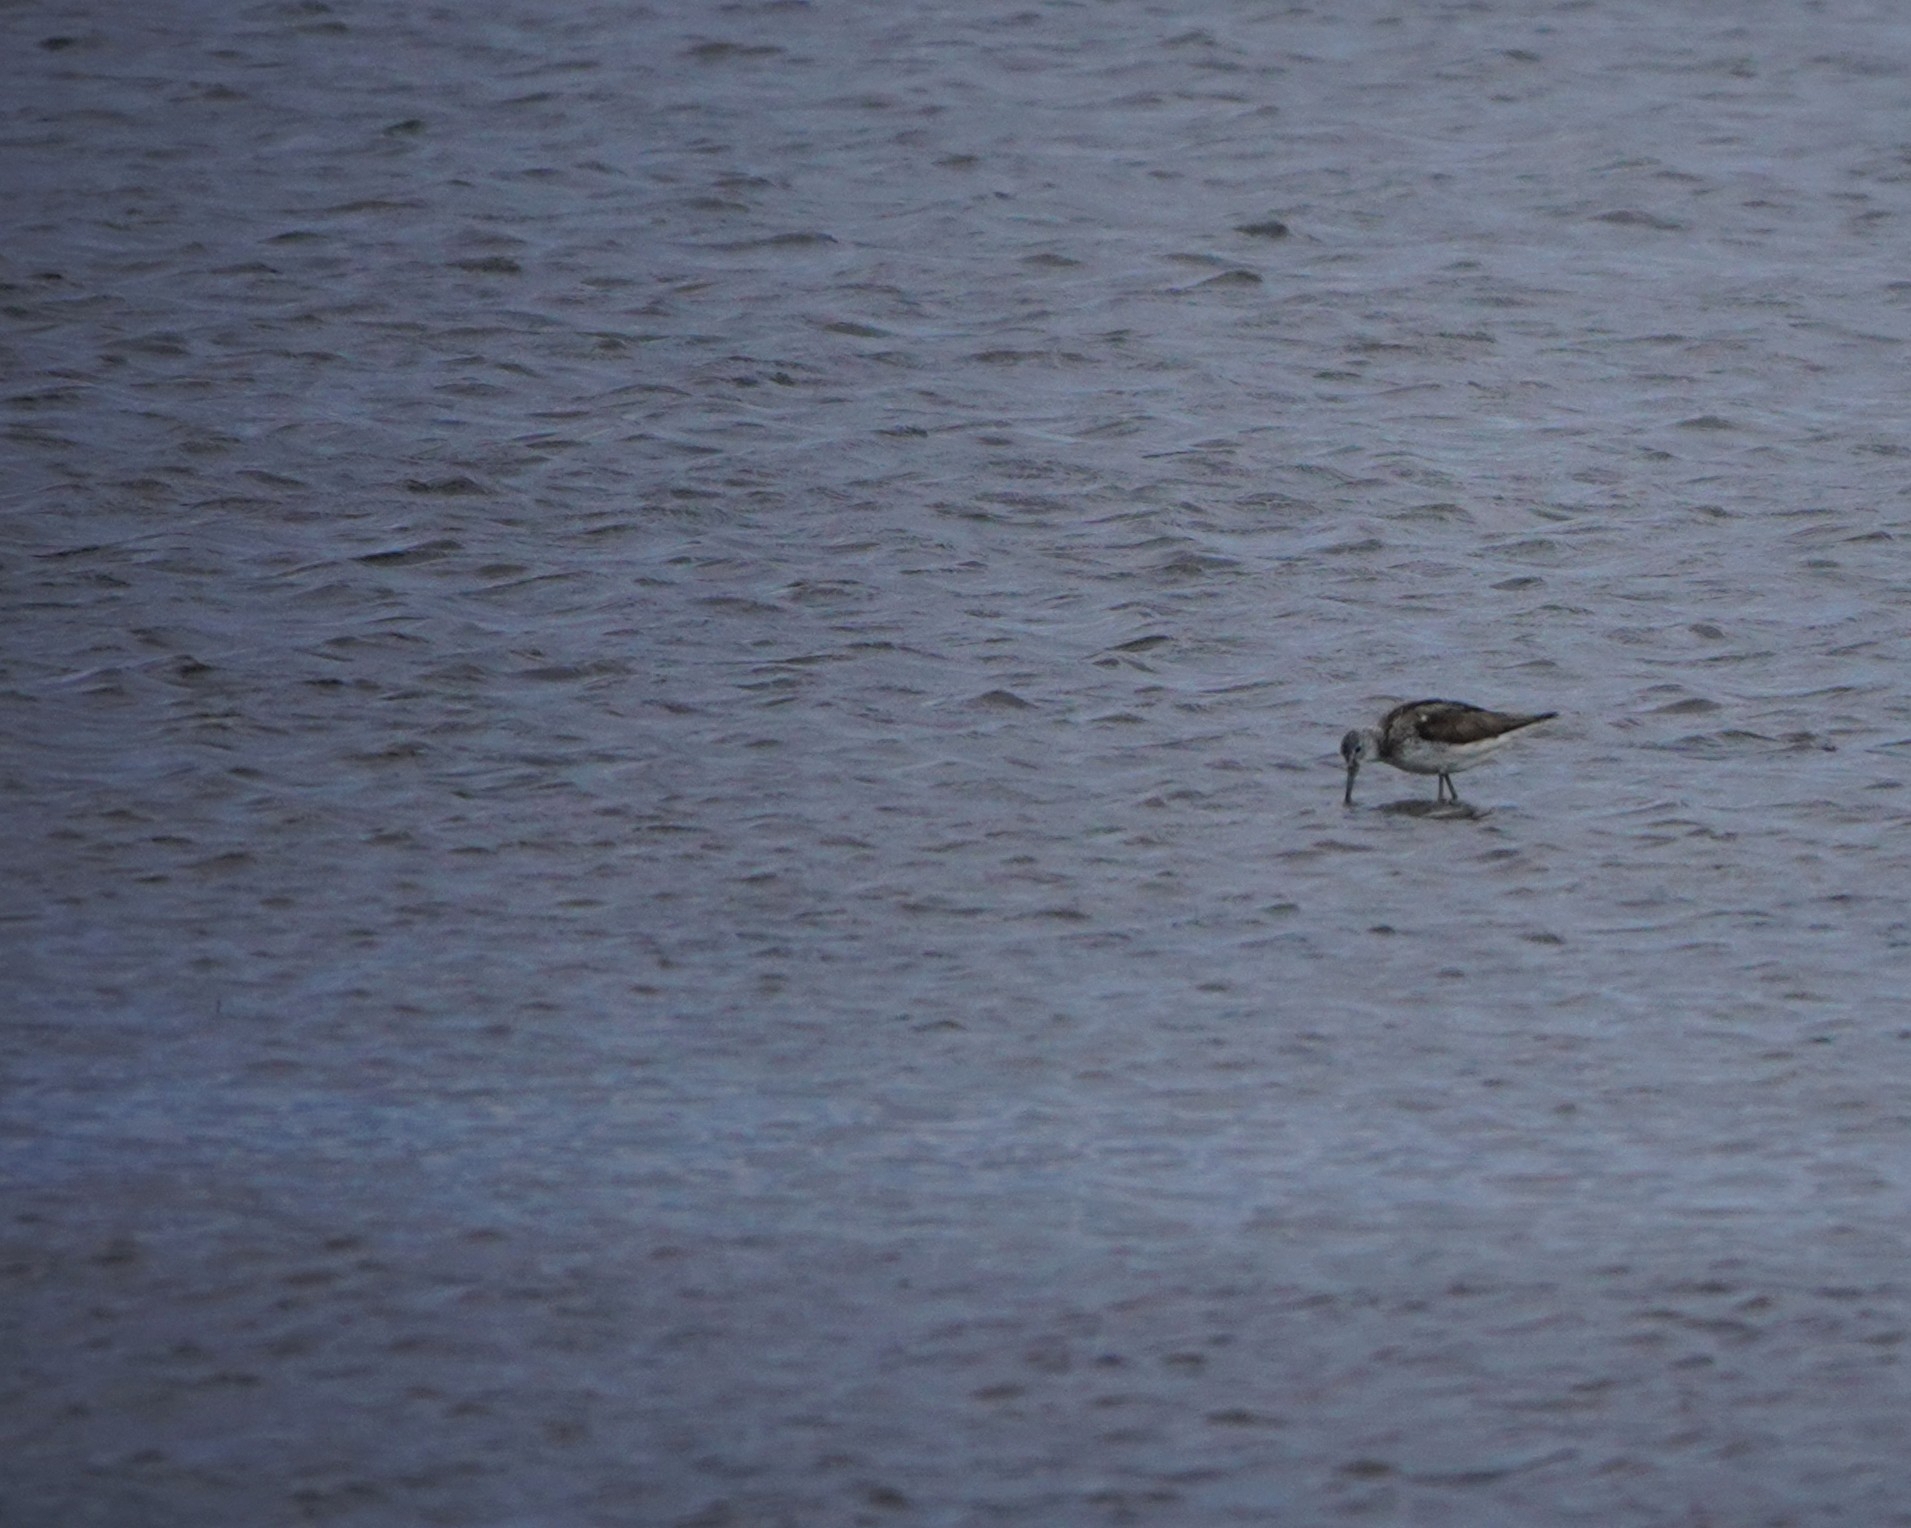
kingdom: Animalia
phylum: Chordata
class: Aves
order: Charadriiformes
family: Scolopacidae
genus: Tringa
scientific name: Tringa nebularia
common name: Common greenshank
